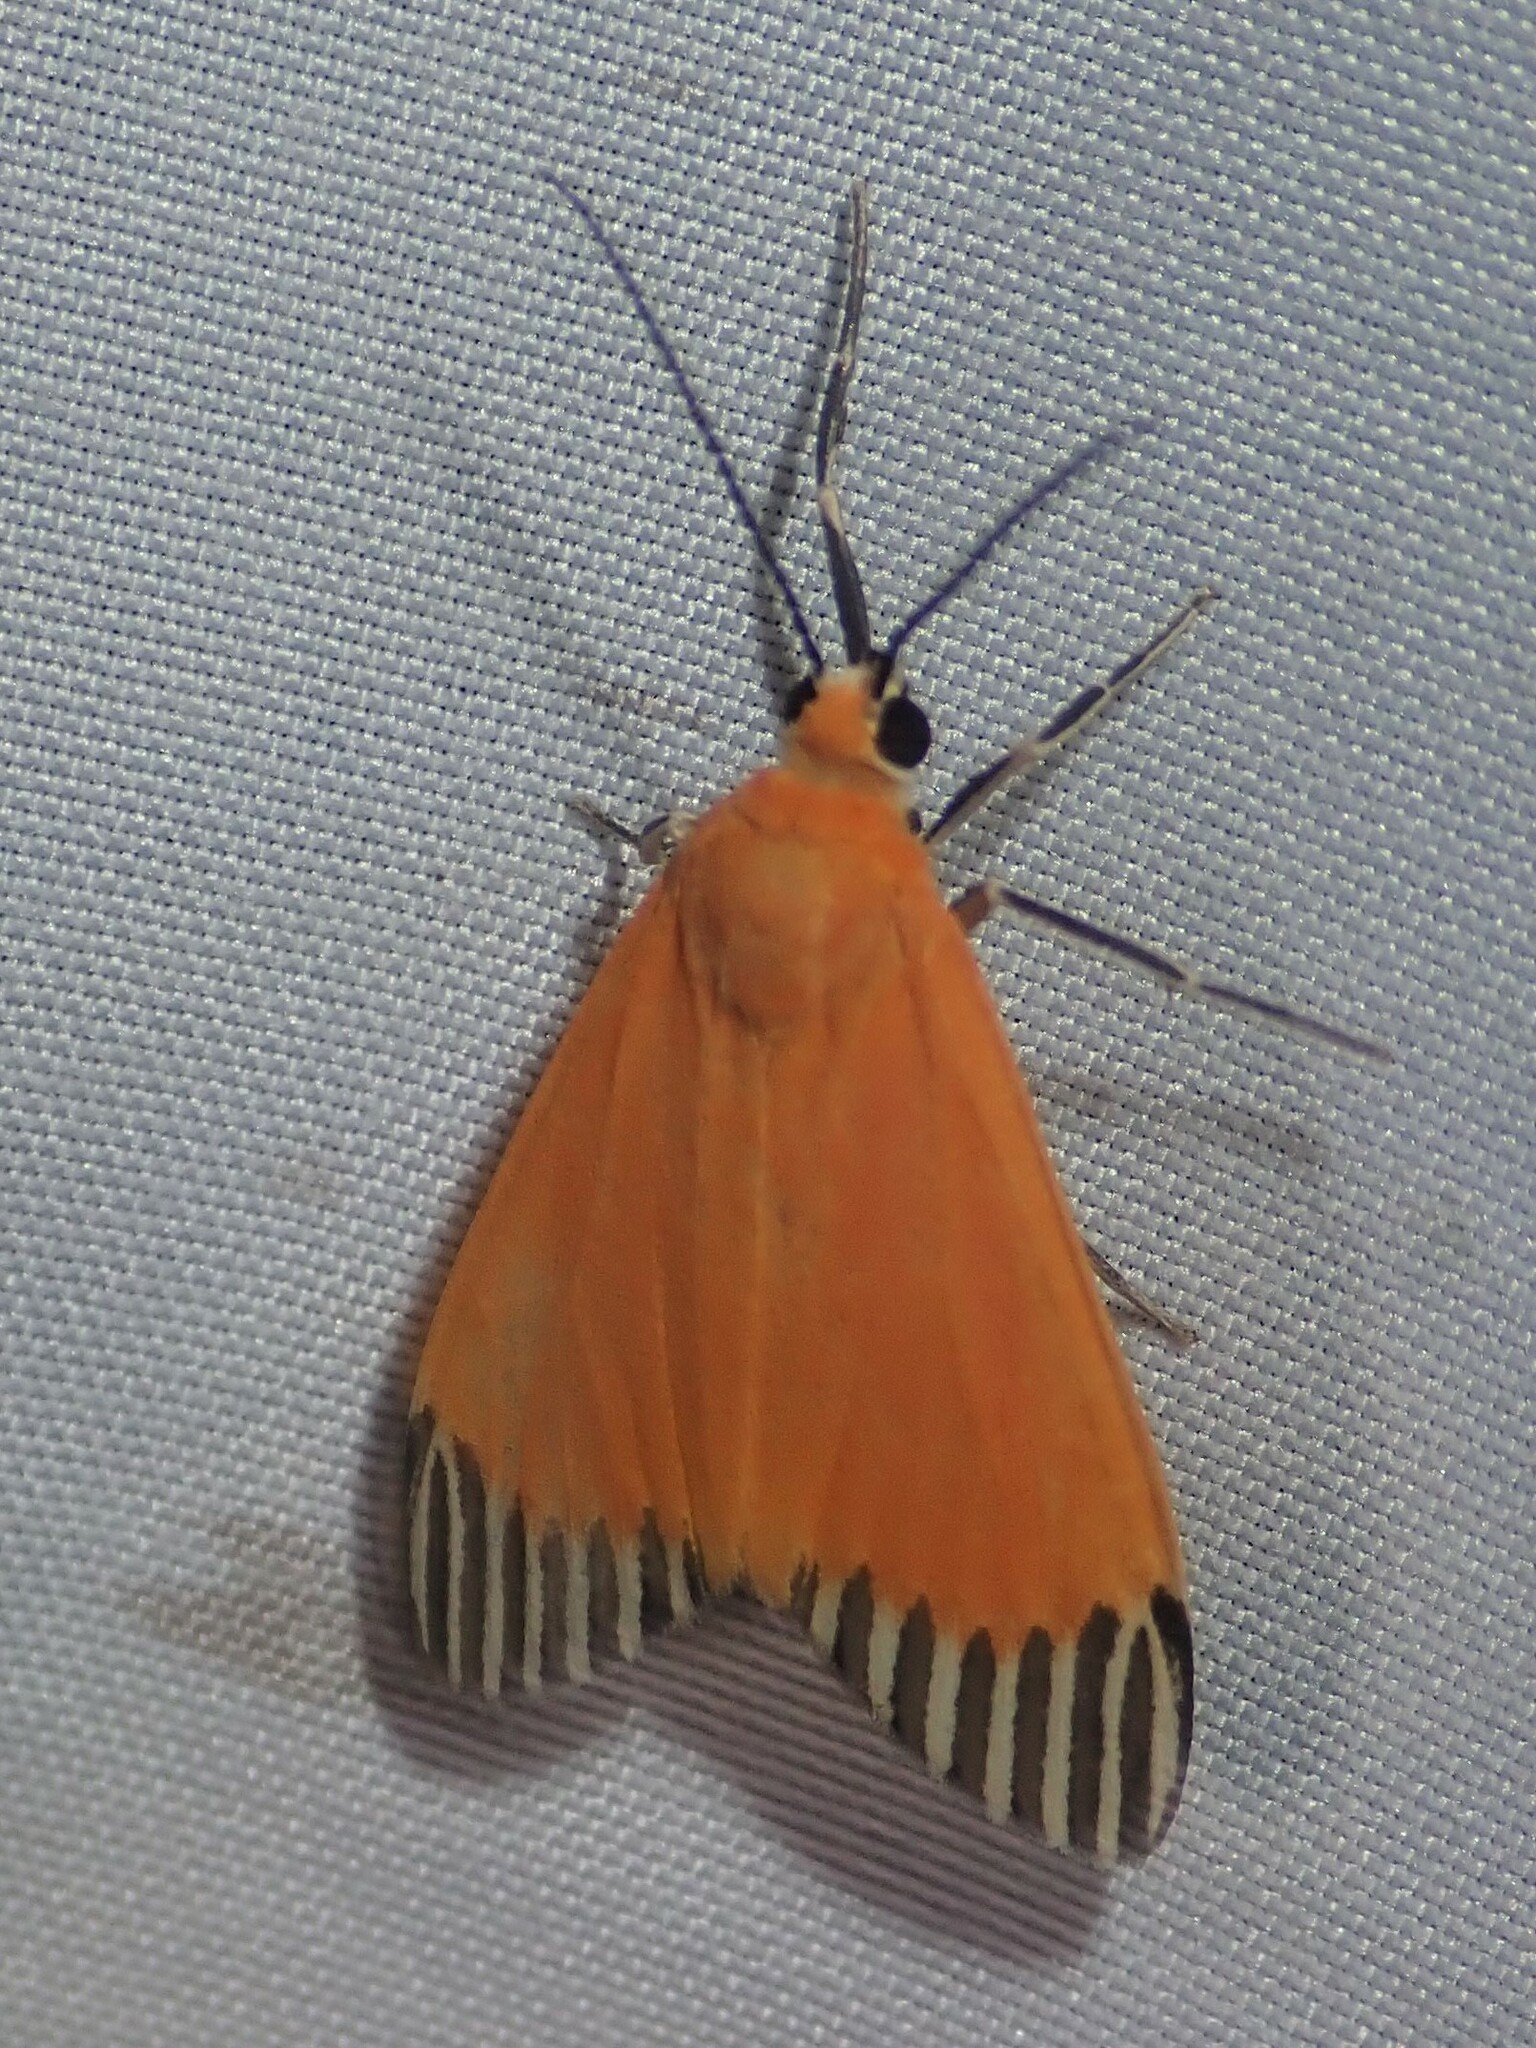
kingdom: Animalia
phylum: Arthropoda
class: Insecta
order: Lepidoptera
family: Erebidae
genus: Uranophora
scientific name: Uranophora walkeri
